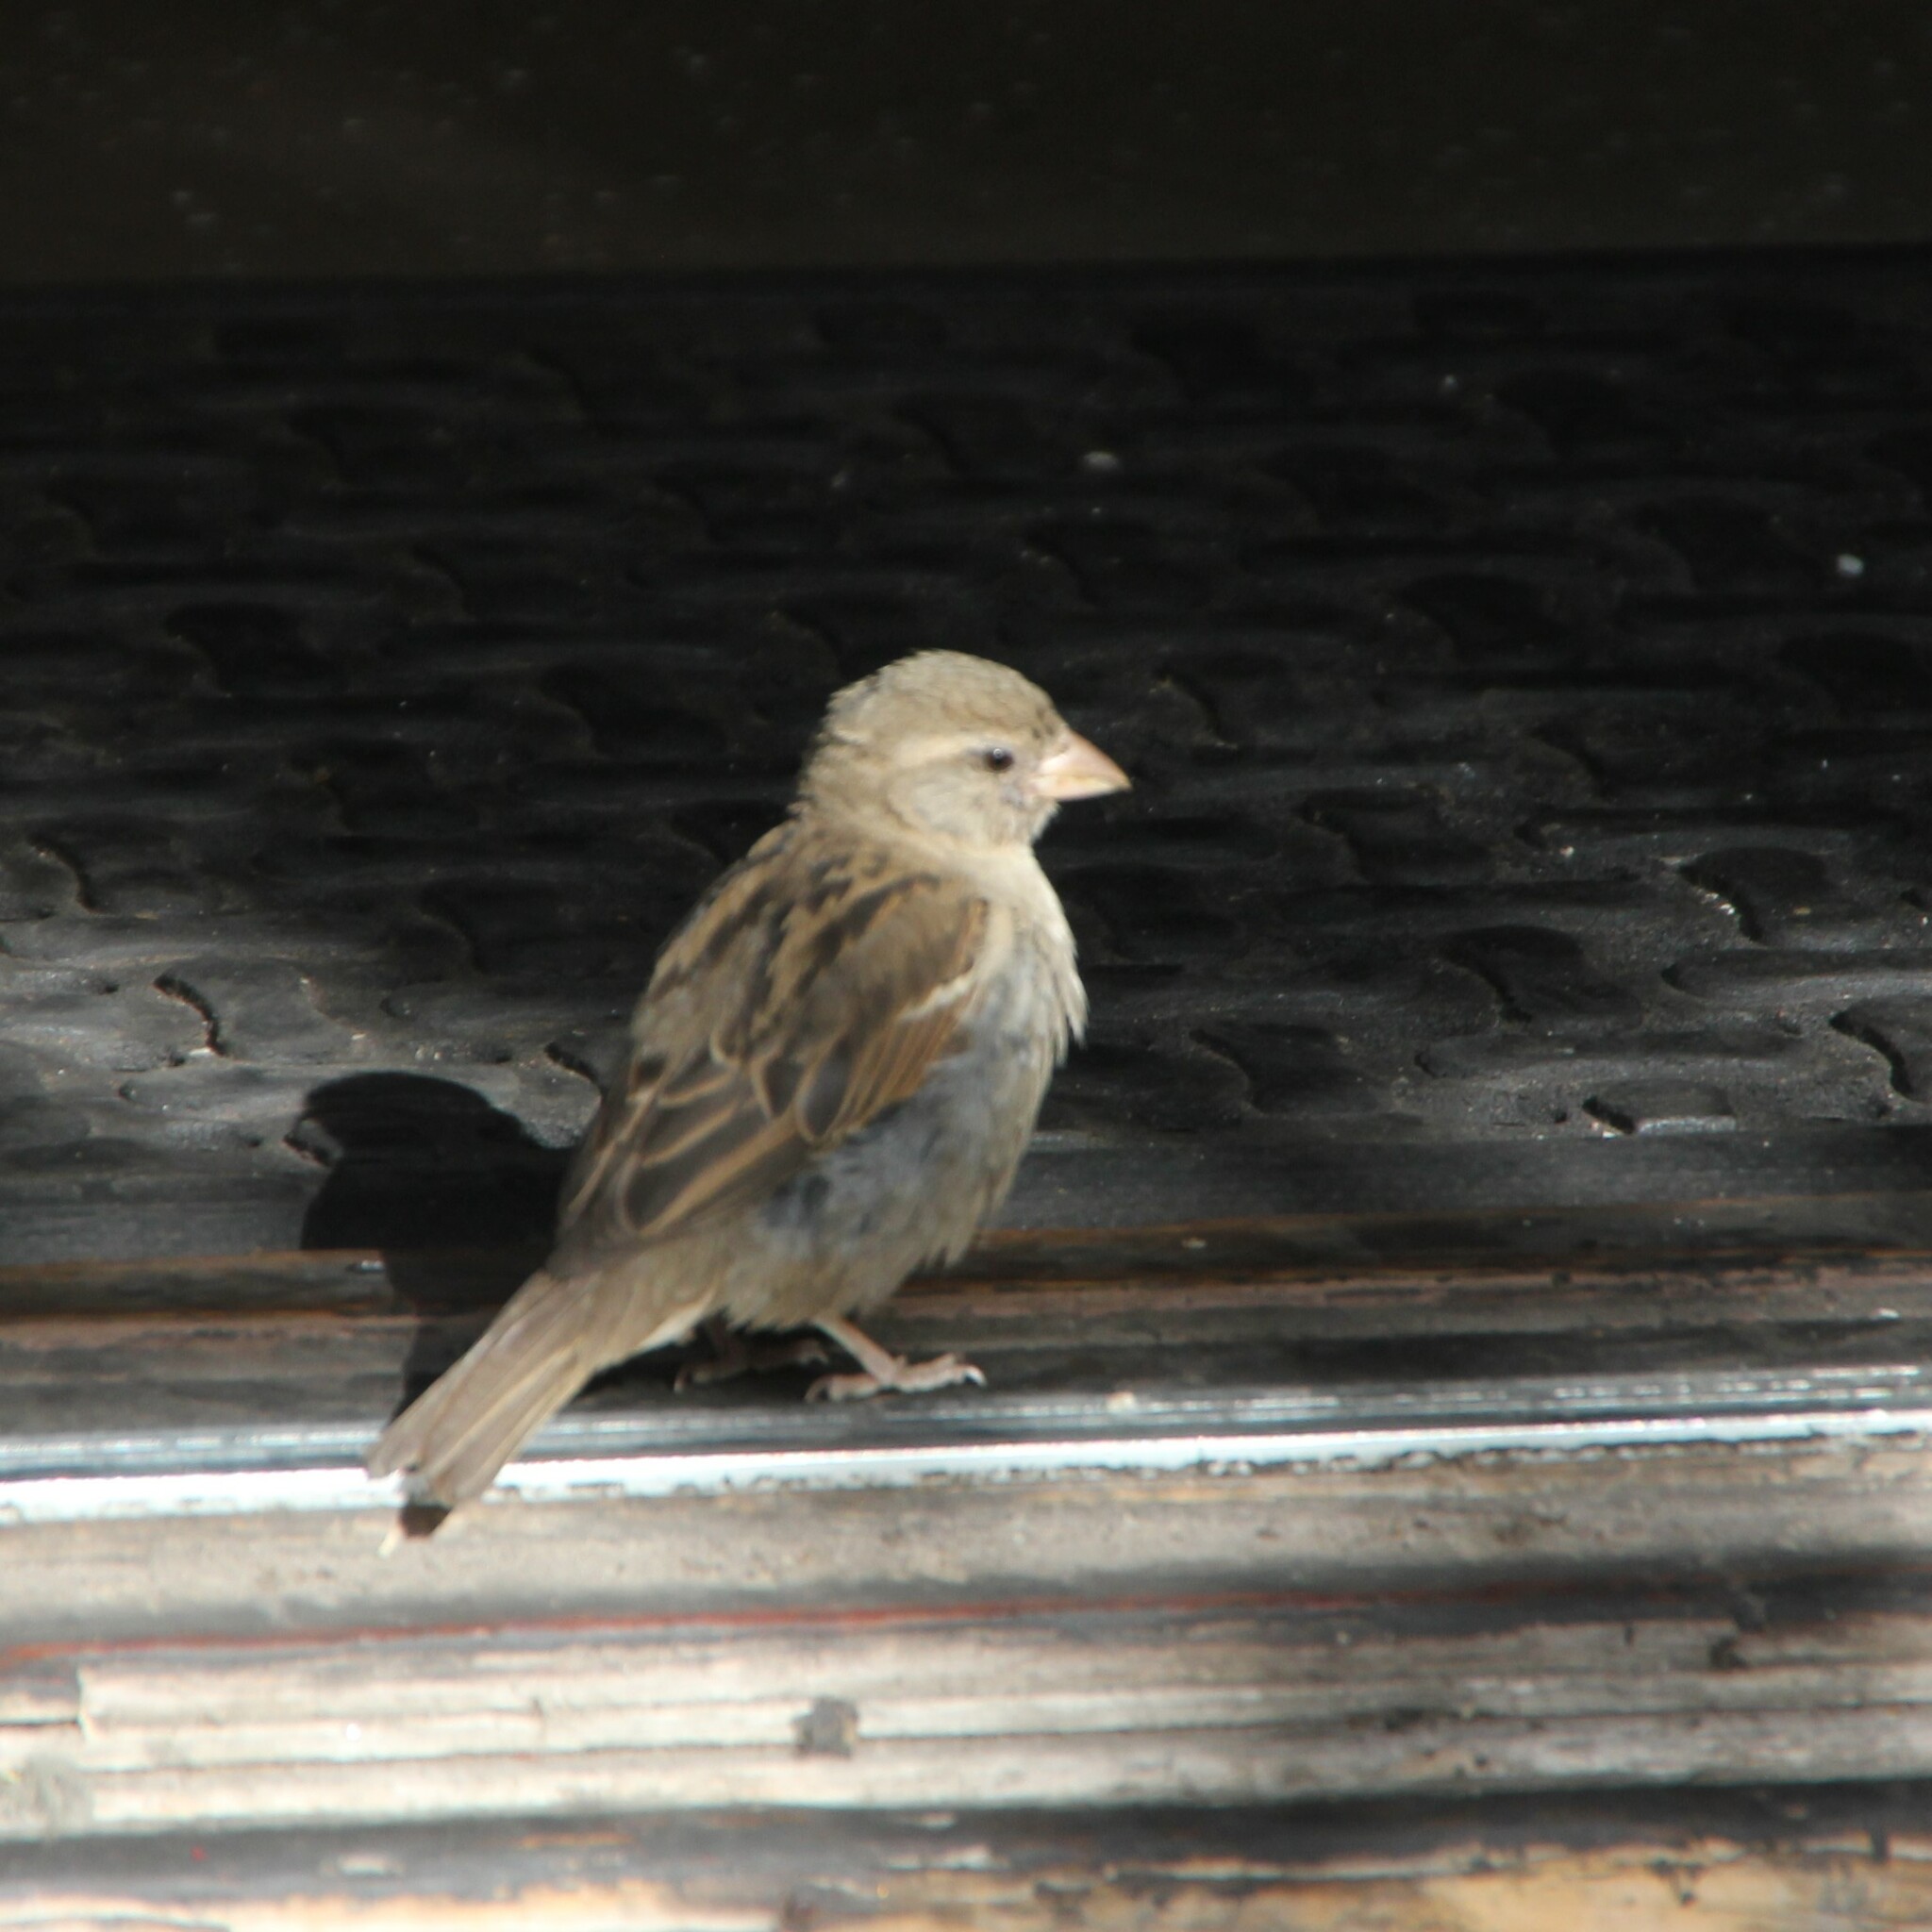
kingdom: Animalia
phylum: Chordata
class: Aves
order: Passeriformes
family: Passeridae
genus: Passer
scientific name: Passer domesticus
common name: House sparrow
